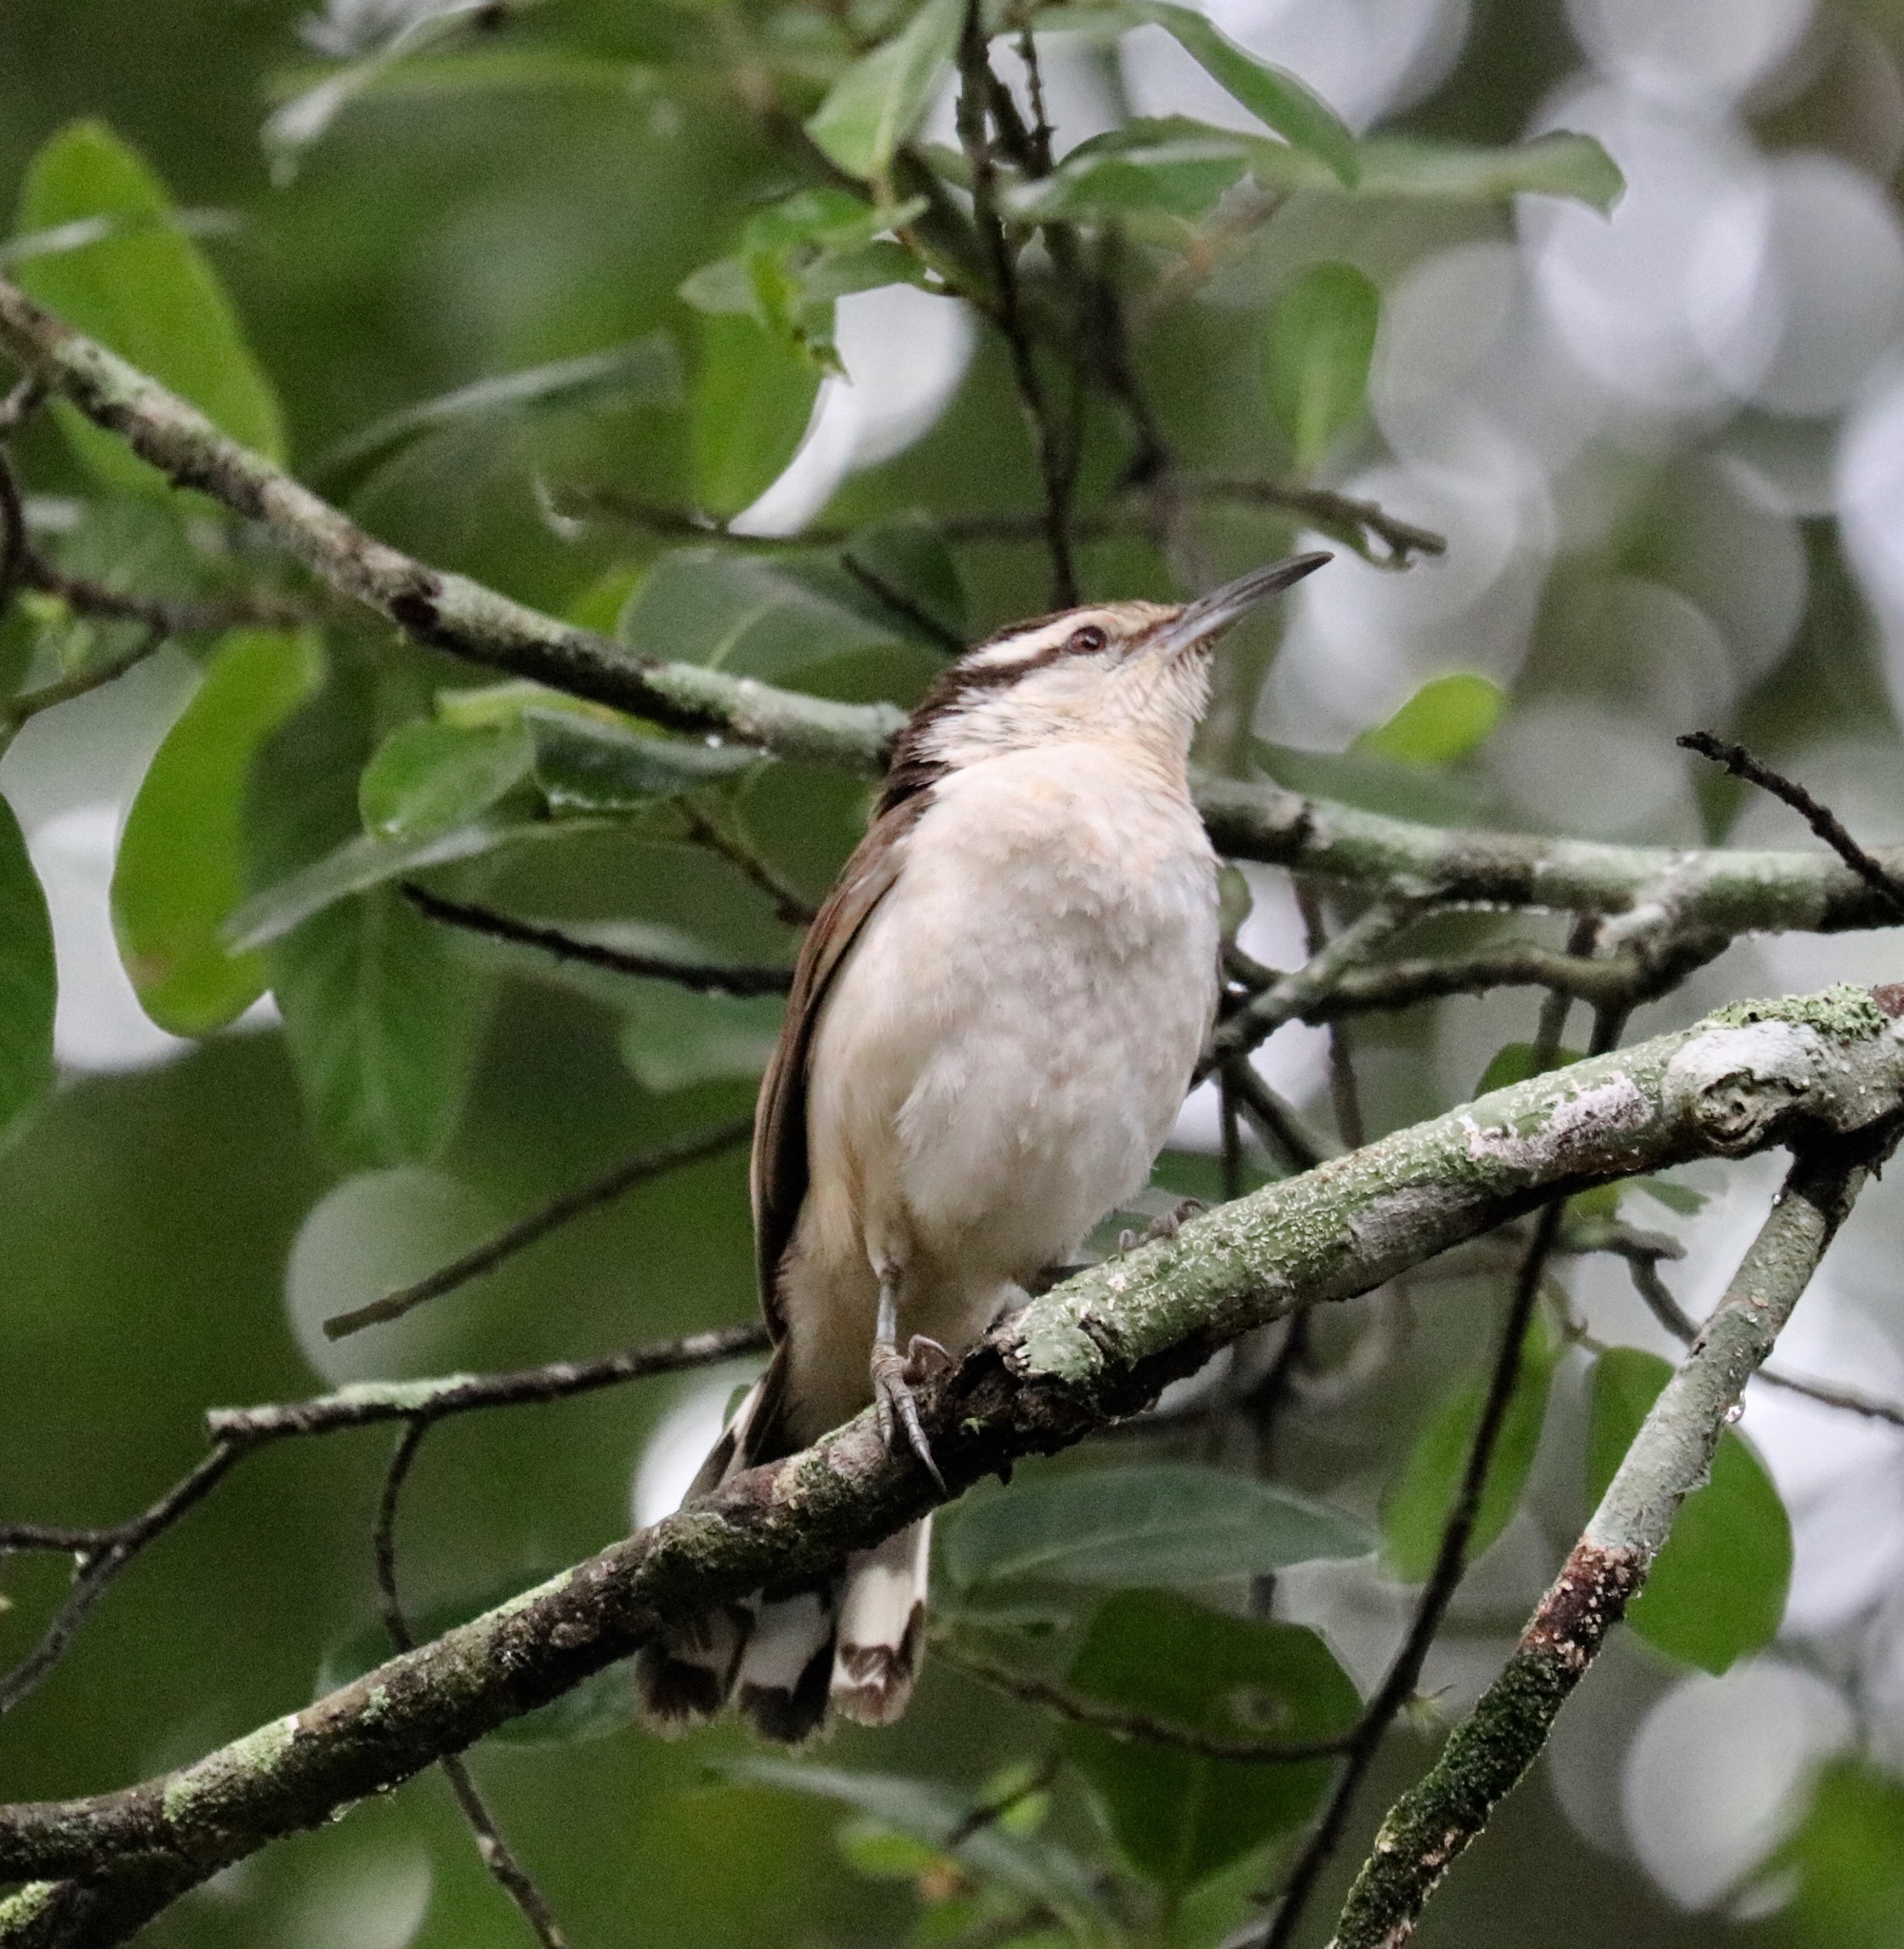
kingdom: Animalia
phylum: Chordata
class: Aves
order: Passeriformes
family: Troglodytidae
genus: Campylorhynchus
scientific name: Campylorhynchus griseus
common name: Bicolored wren
